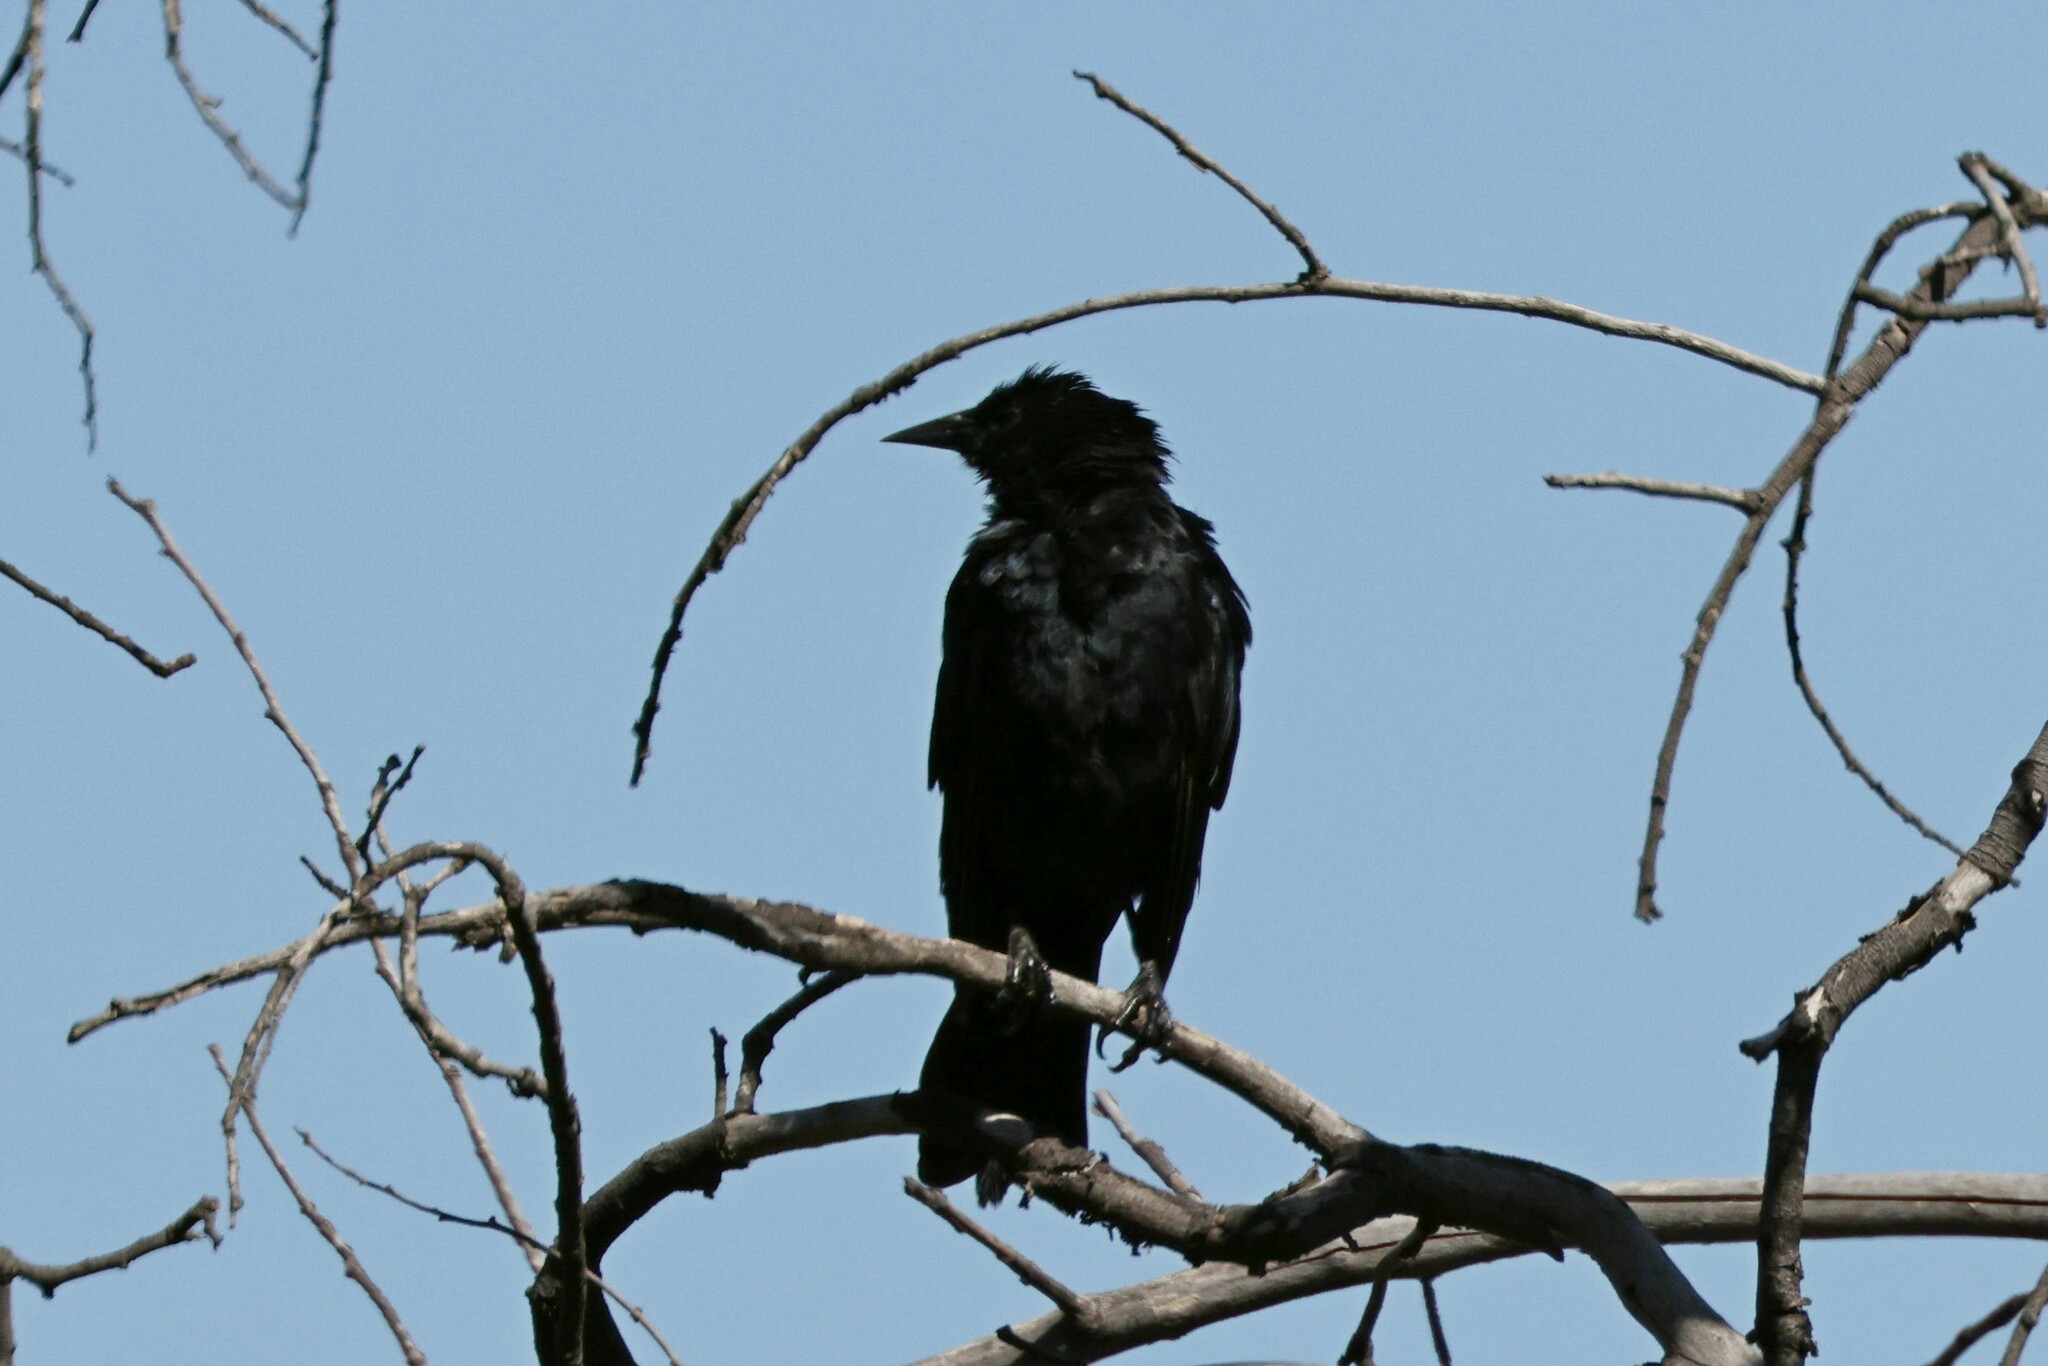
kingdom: Animalia
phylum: Chordata
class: Aves
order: Passeriformes
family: Icteridae
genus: Curaeus
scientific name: Curaeus curaeus
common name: Austral blackbird
